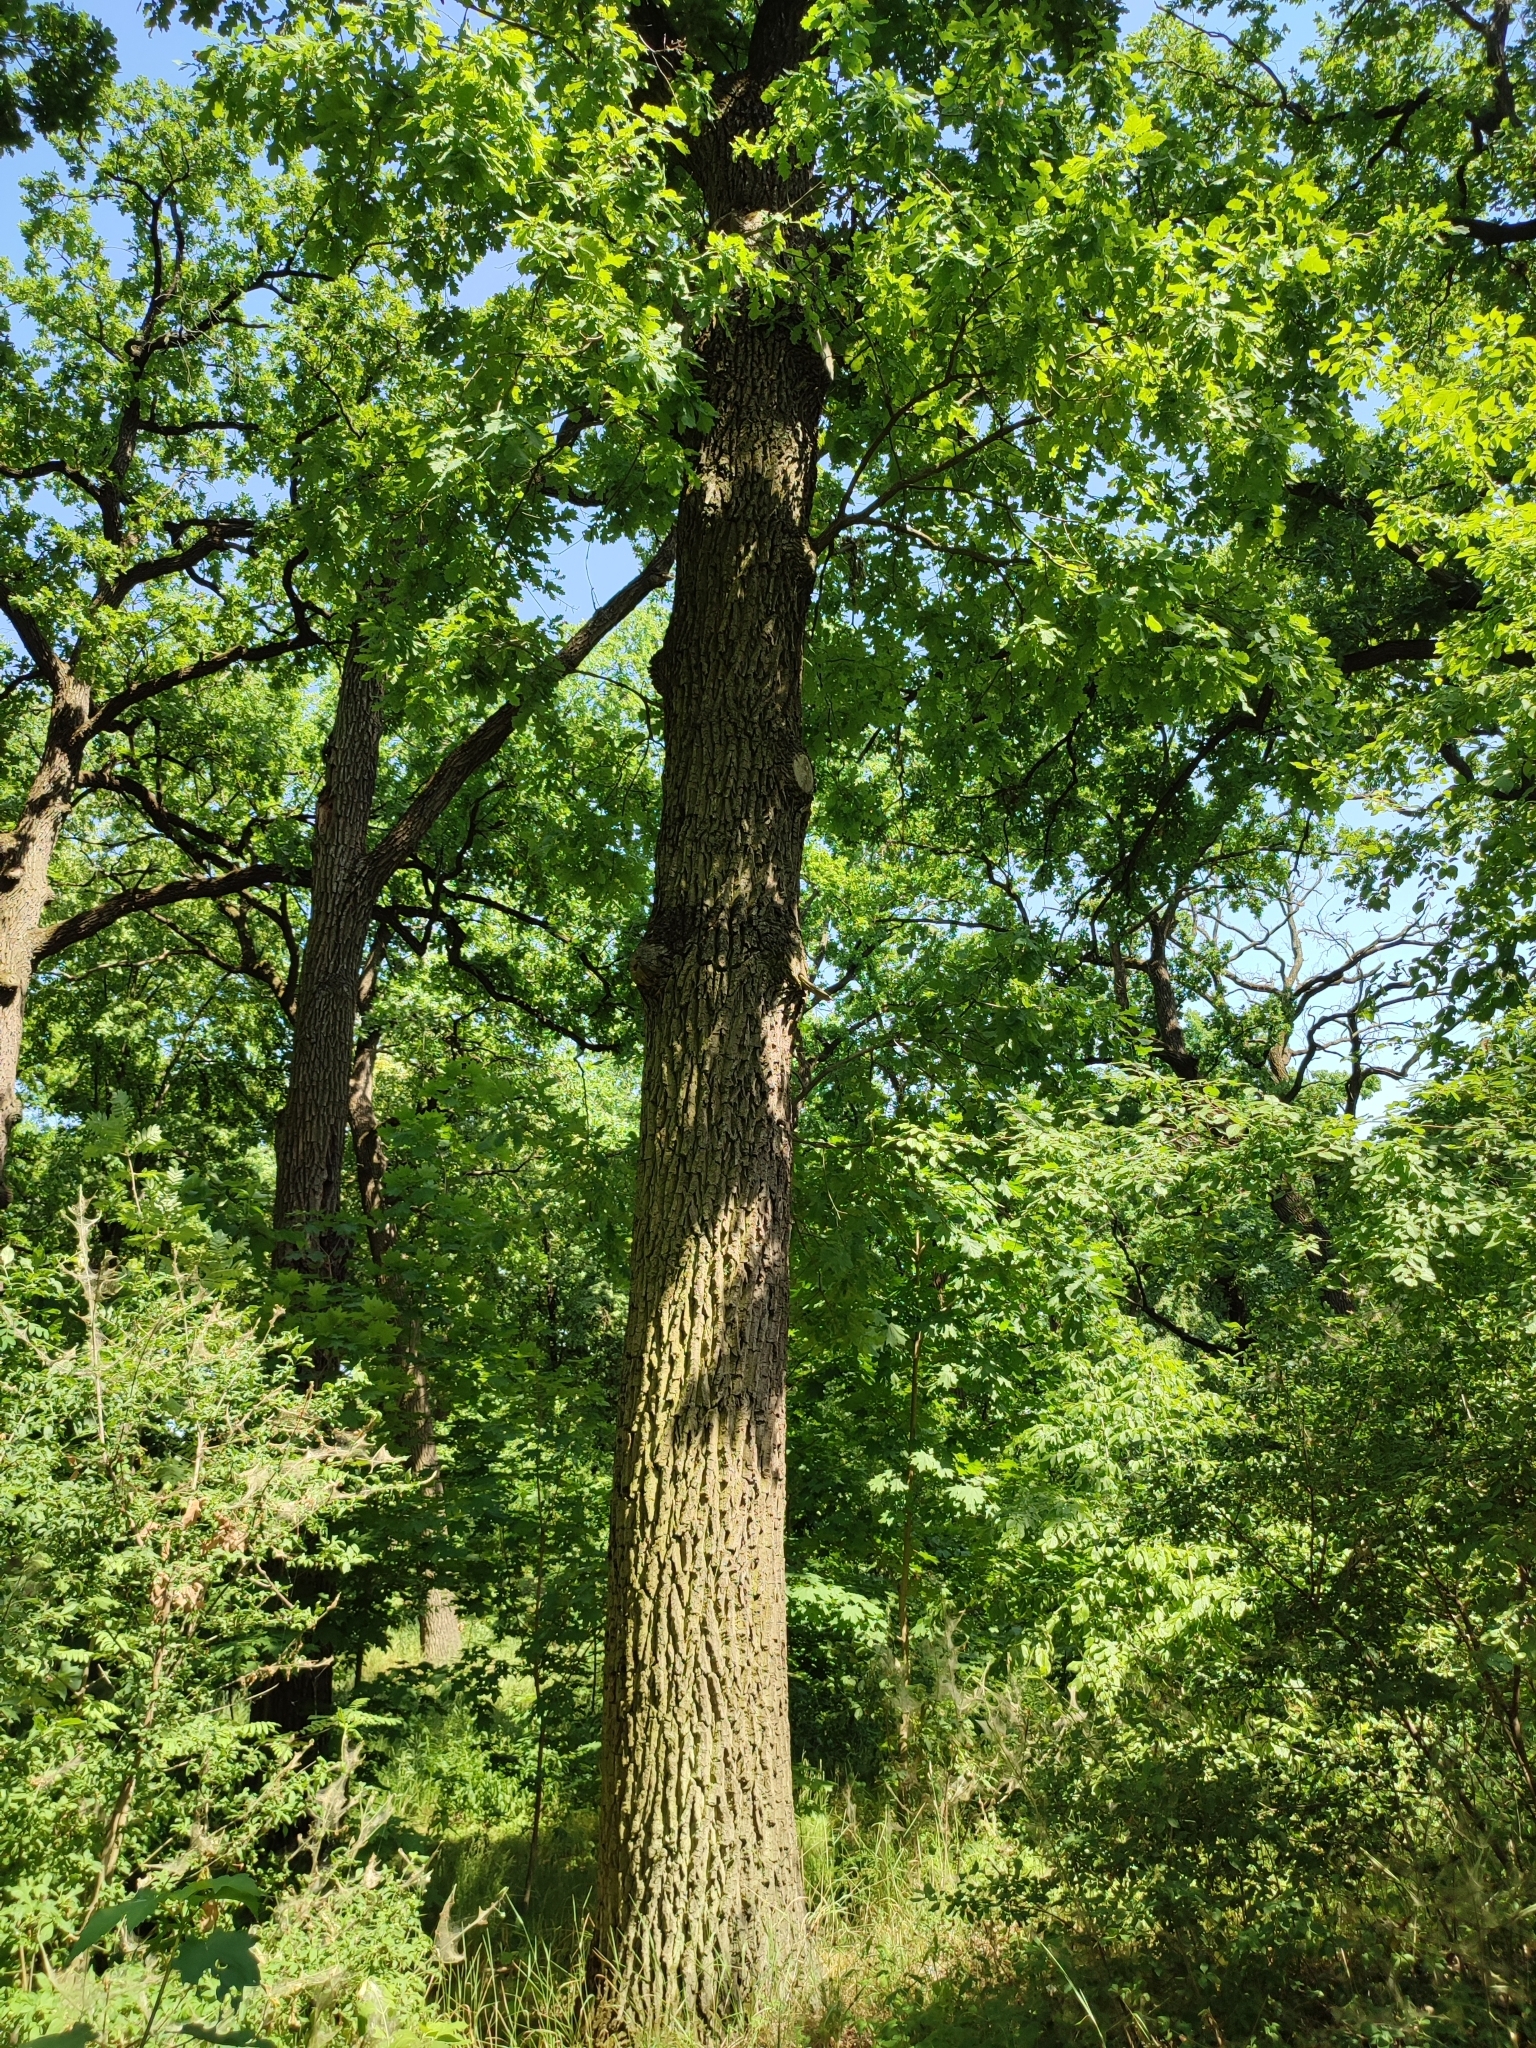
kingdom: Plantae
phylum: Tracheophyta
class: Magnoliopsida
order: Fagales
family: Fagaceae
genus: Quercus
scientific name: Quercus robur
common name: Pedunculate oak
